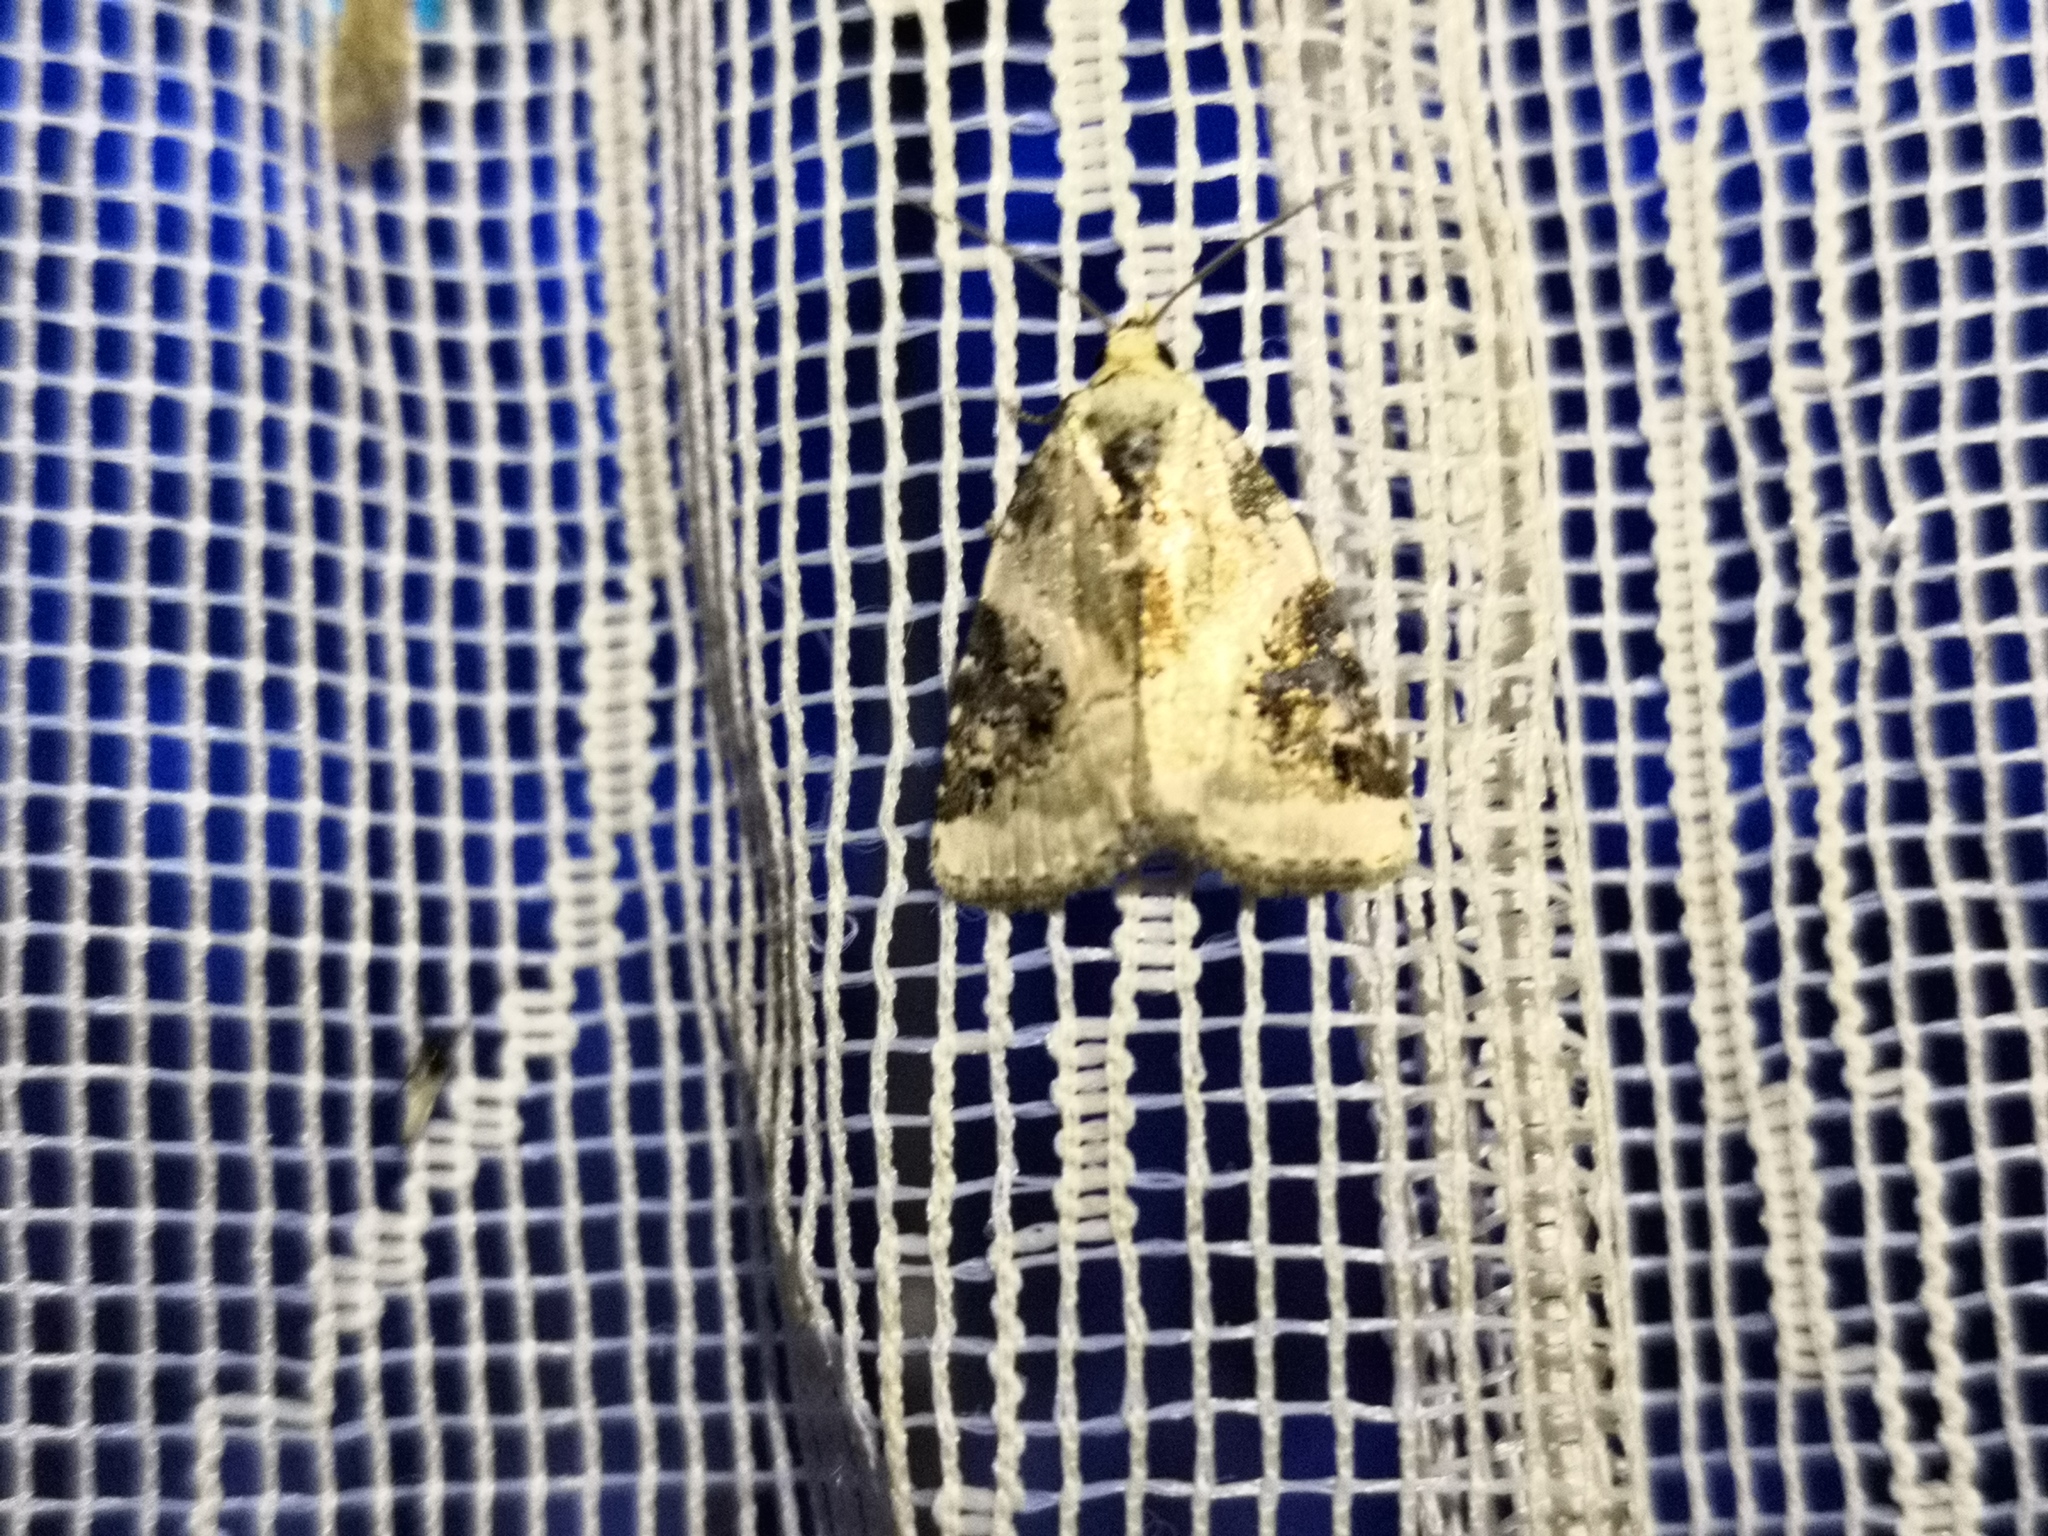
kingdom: Animalia
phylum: Arthropoda
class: Insecta
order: Lepidoptera
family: Noctuidae
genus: Pseudeustrotia
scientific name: Pseudeustrotia candidula
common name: Shining marbled
